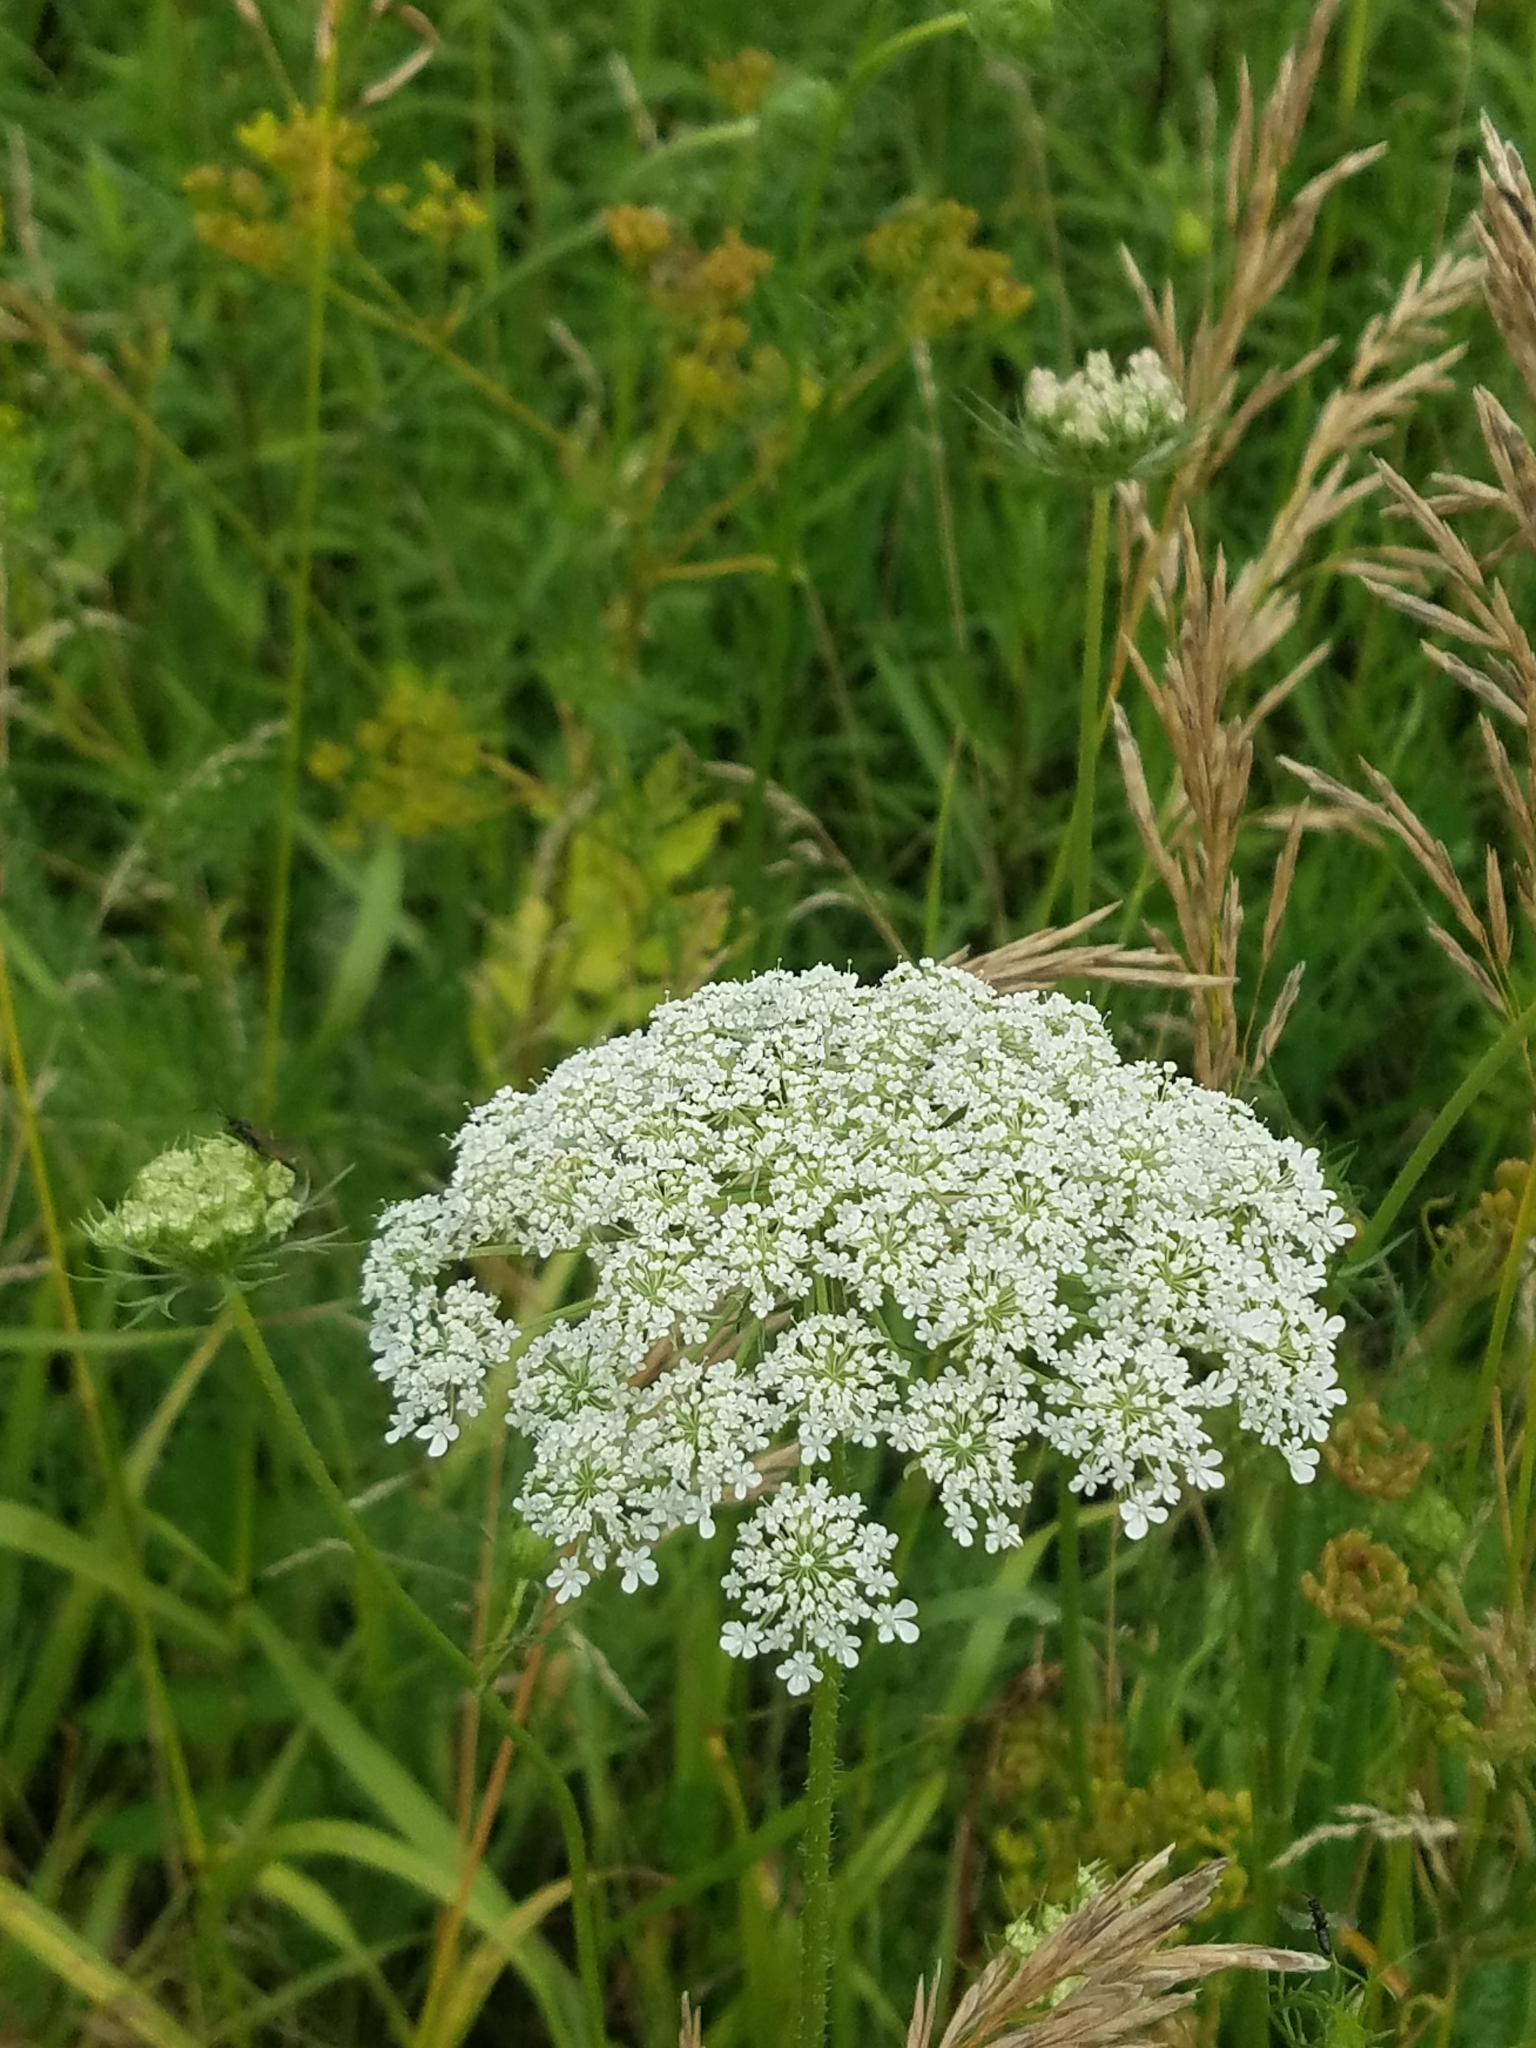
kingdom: Plantae
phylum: Tracheophyta
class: Magnoliopsida
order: Apiales
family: Apiaceae
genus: Daucus
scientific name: Daucus carota
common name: Wild carrot
